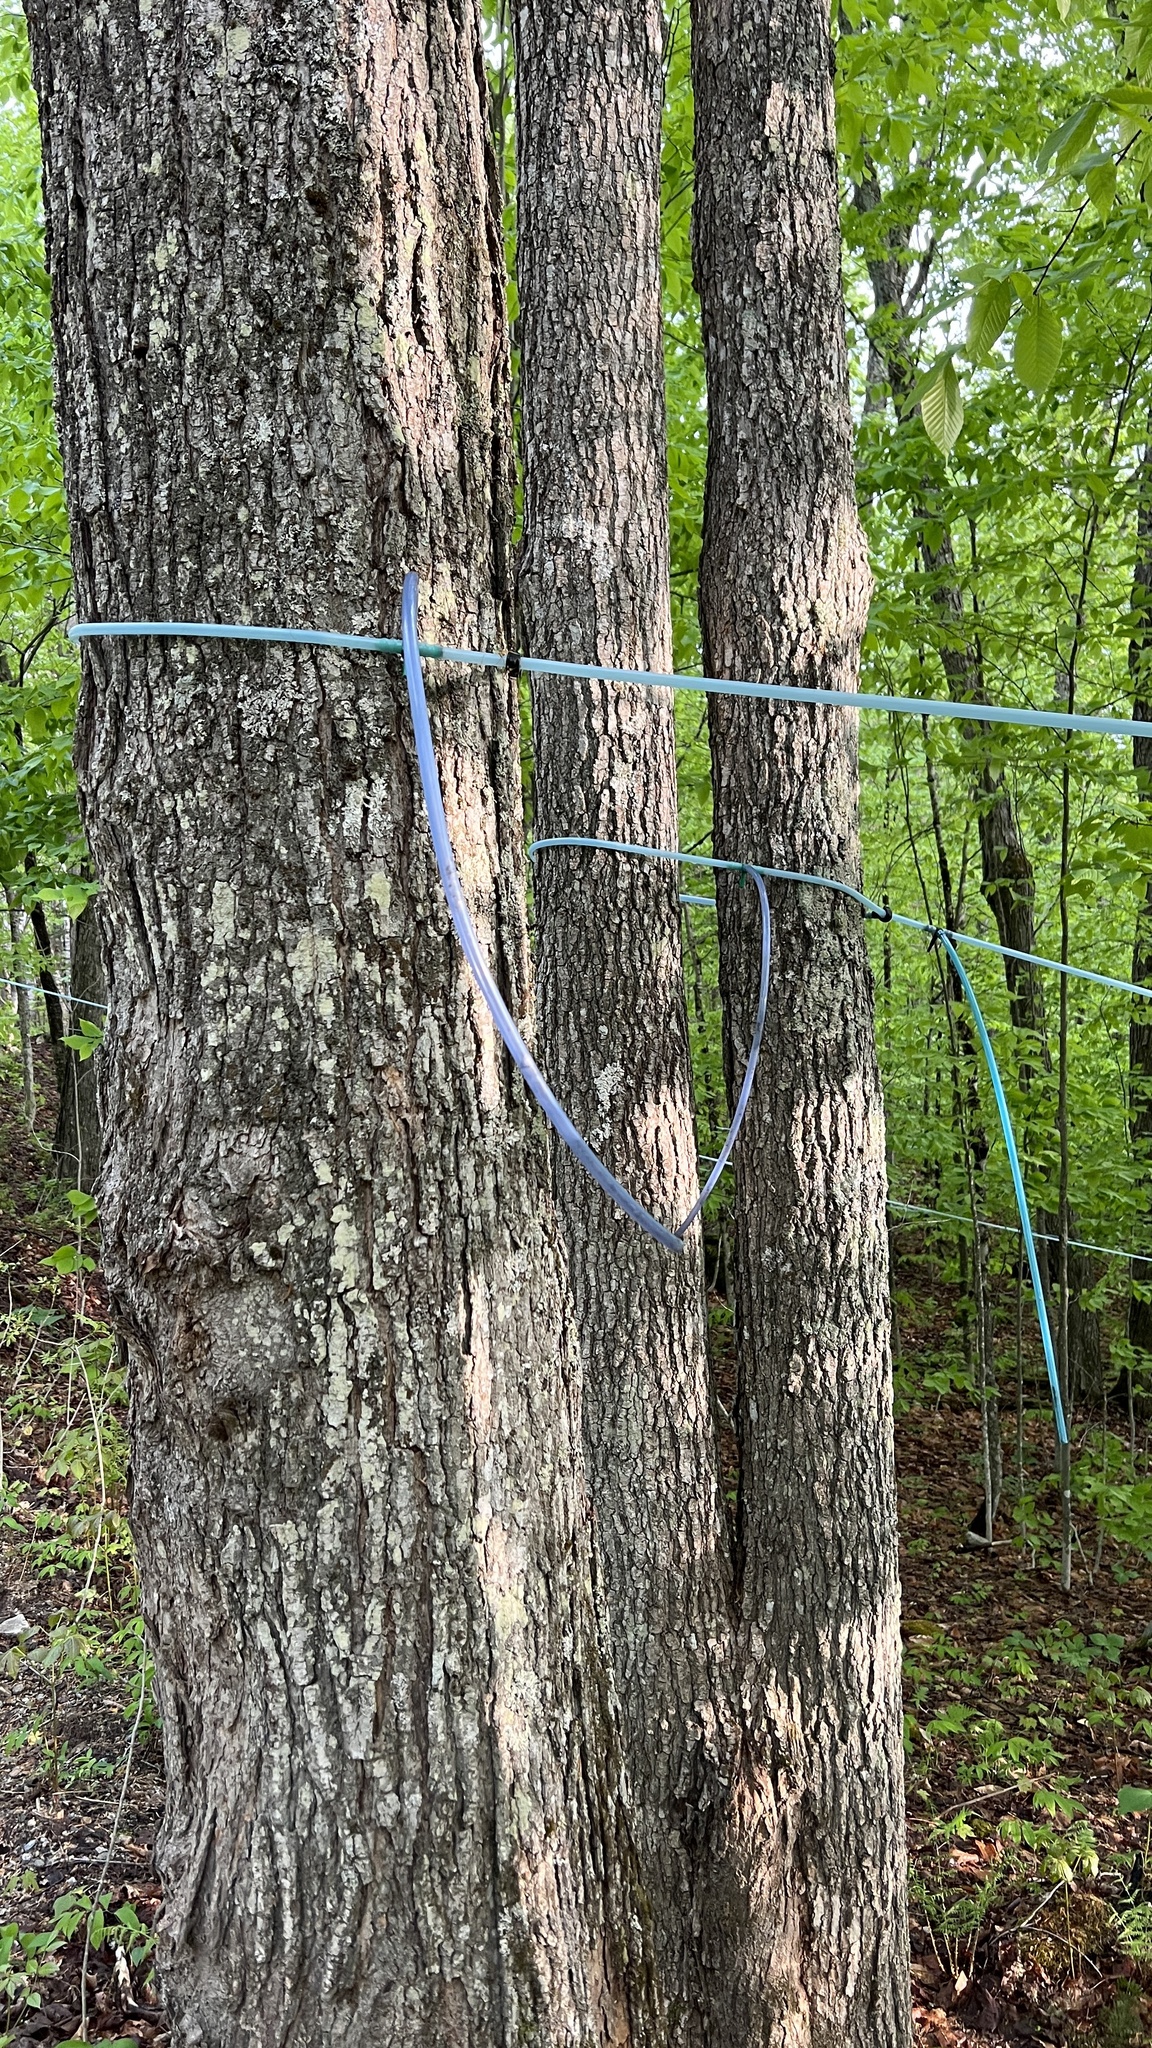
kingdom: Plantae
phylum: Tracheophyta
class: Magnoliopsida
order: Sapindales
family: Sapindaceae
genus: Acer
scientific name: Acer saccharum
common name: Sugar maple
